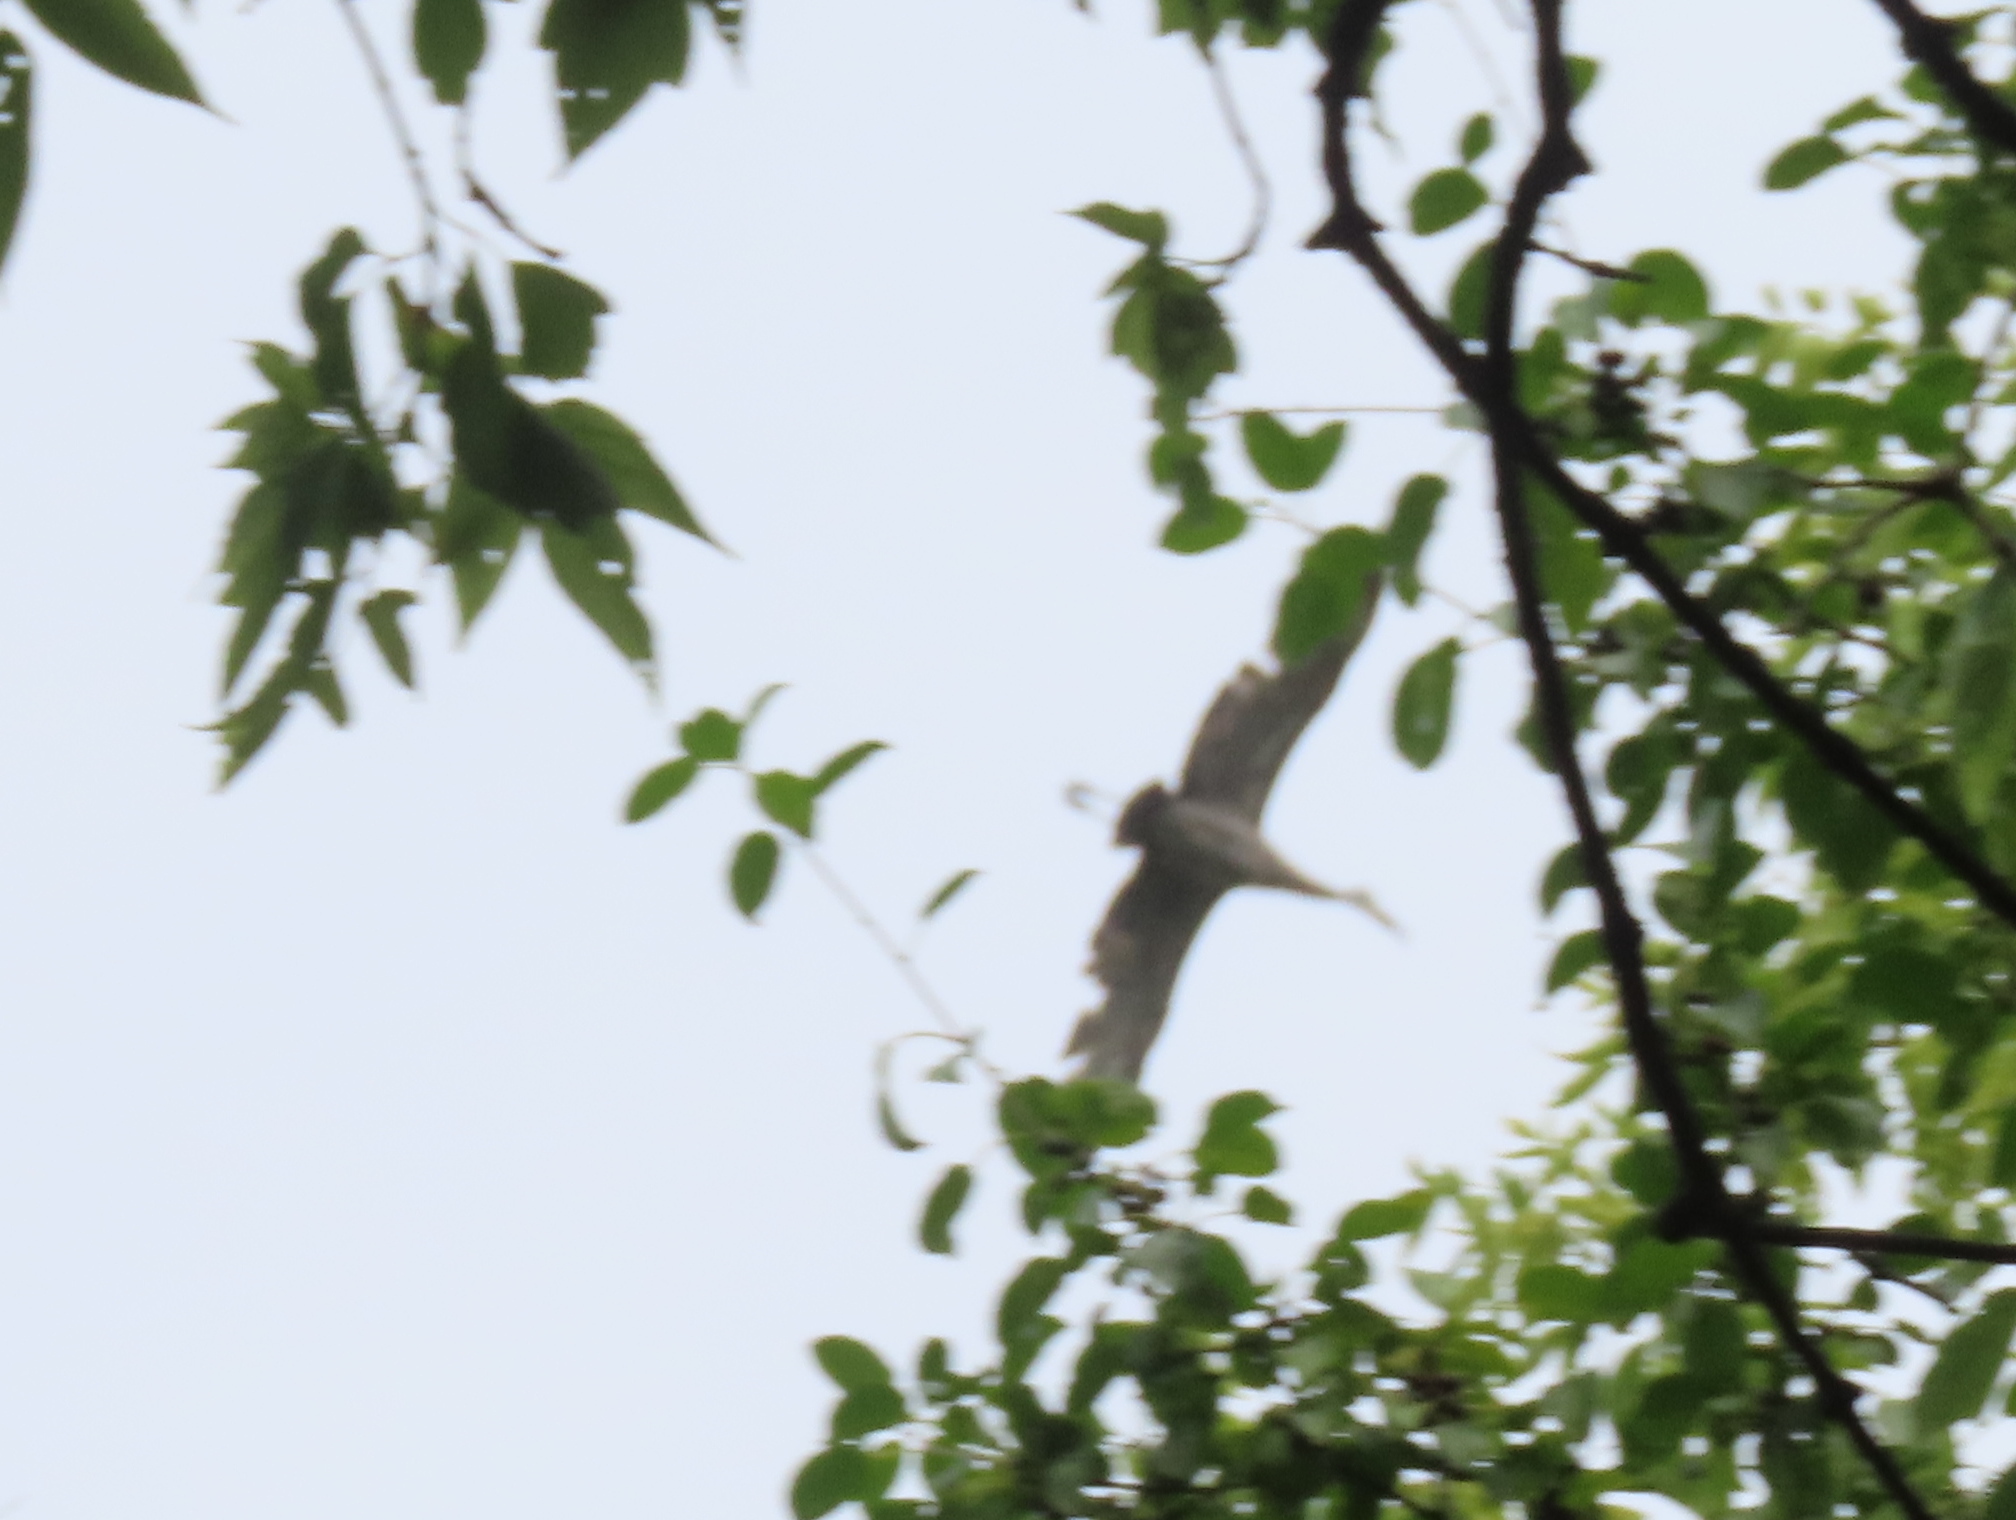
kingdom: Animalia
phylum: Chordata
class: Aves
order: Gruiformes
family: Gruidae
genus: Grus
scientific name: Grus canadensis
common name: Sandhill crane
